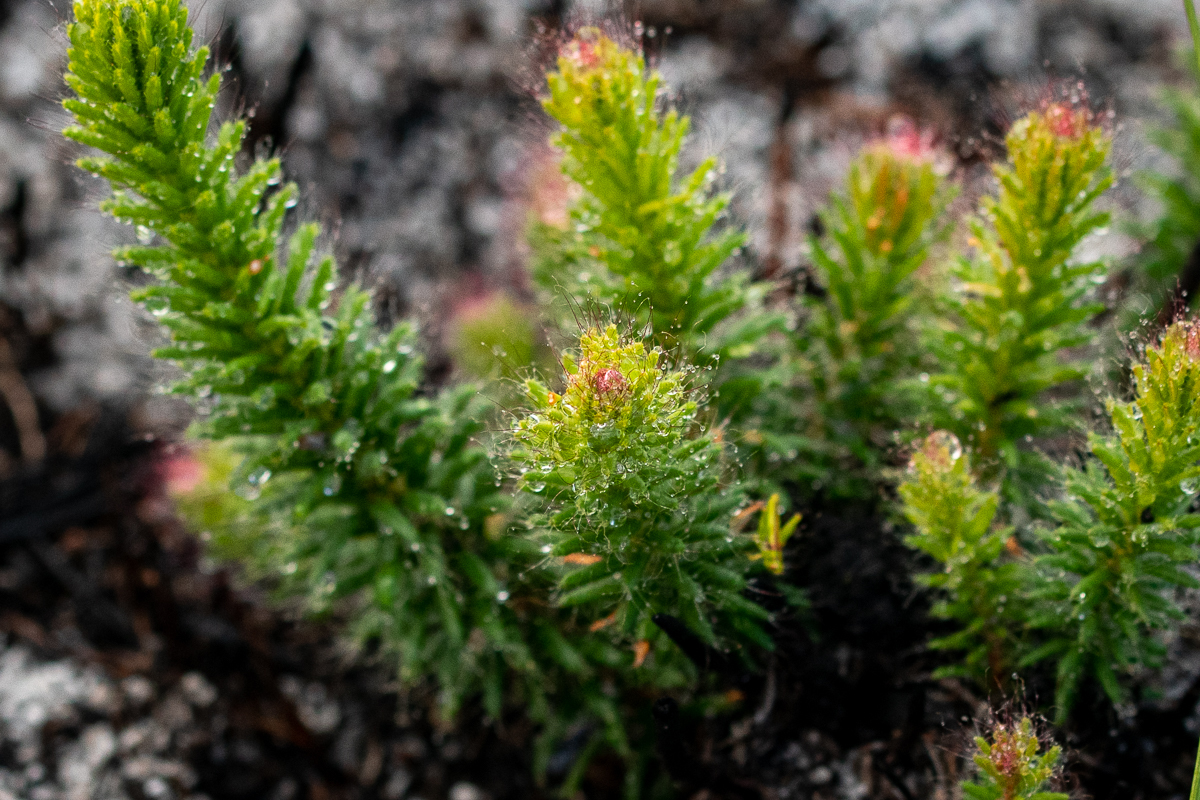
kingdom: Plantae
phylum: Tracheophyta
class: Magnoliopsida
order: Ericales
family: Ericaceae
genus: Erica
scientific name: Erica cerinthoides
